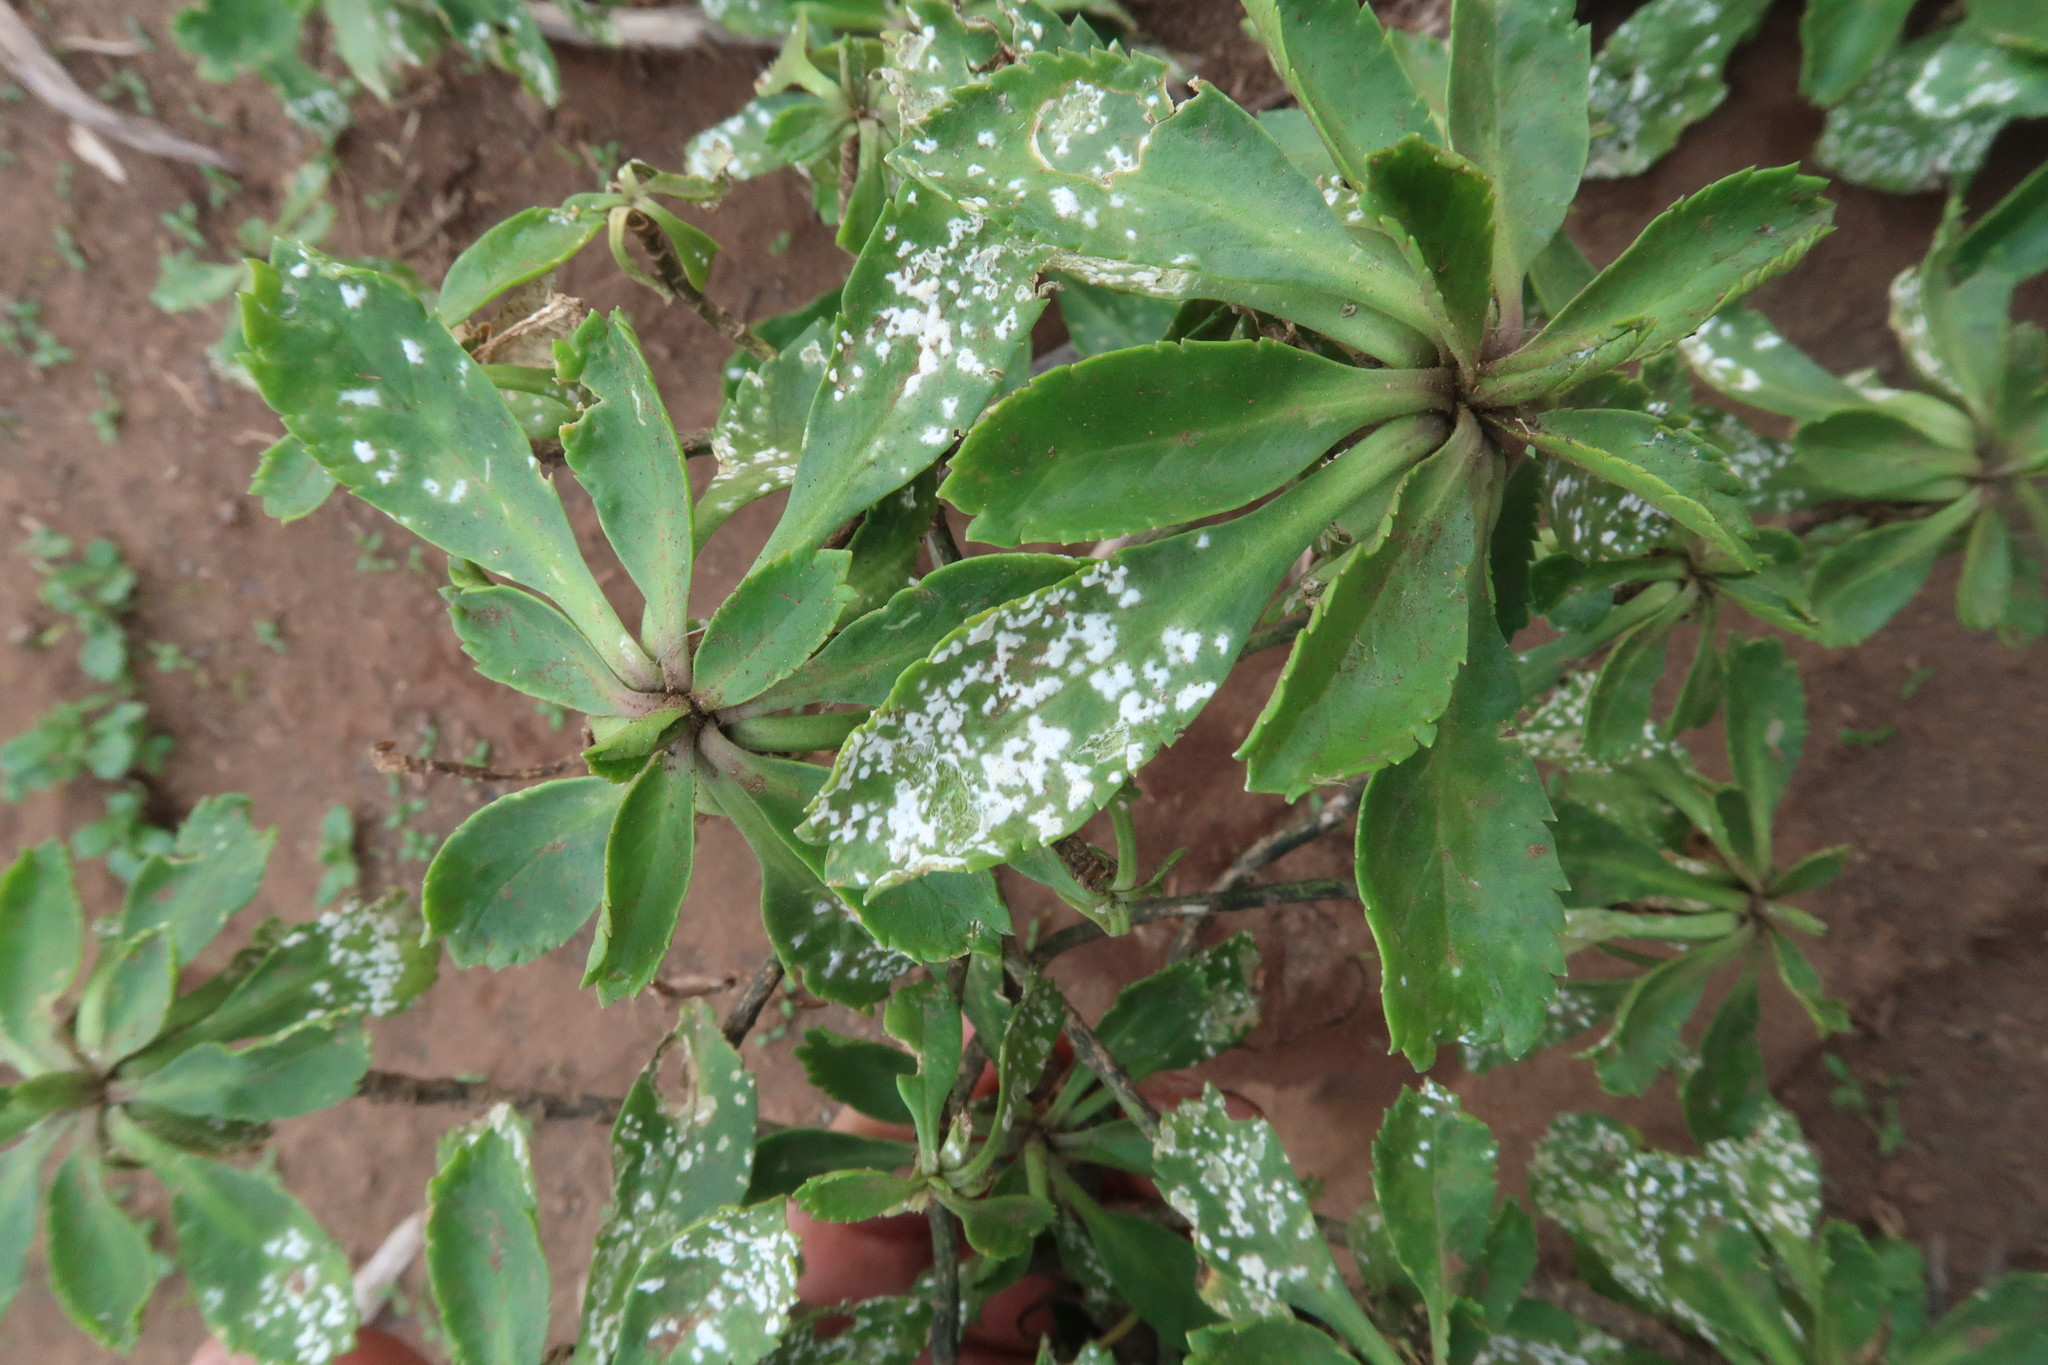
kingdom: Chromista
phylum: Oomycota
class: Peronosporea
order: Albuginales
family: Albuginaceae
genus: Albugo
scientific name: Albugo lepidii
